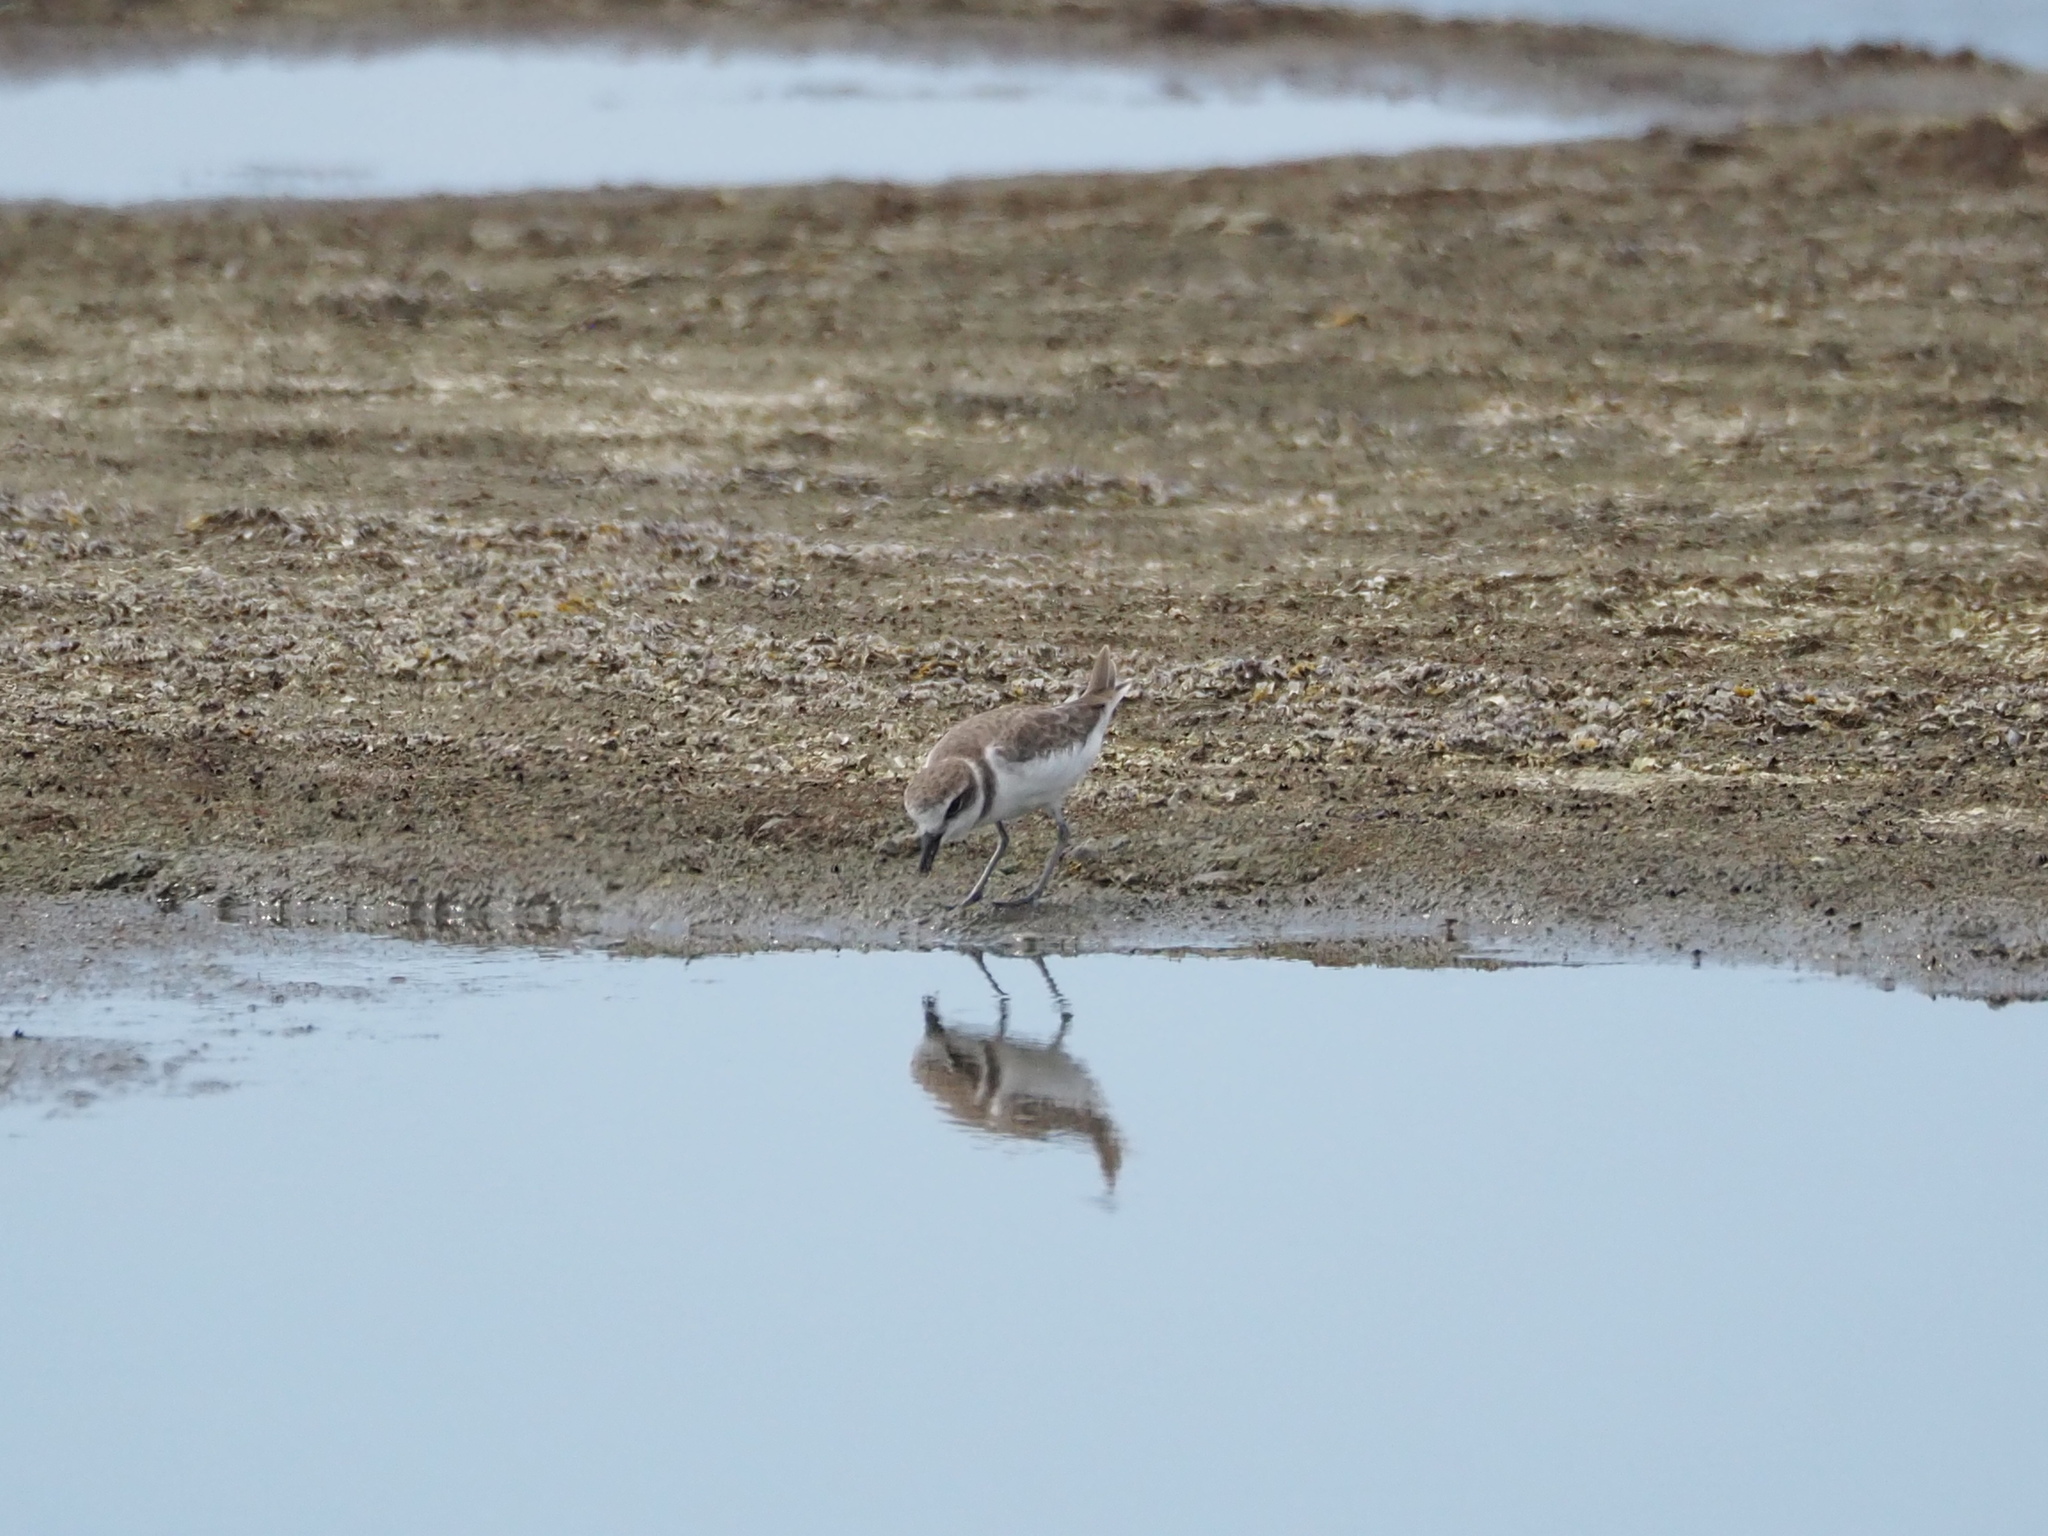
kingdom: Animalia
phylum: Chordata
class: Aves
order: Charadriiformes
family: Charadriidae
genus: Charadrius
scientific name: Charadrius alexandrinus
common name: Kentish plover
